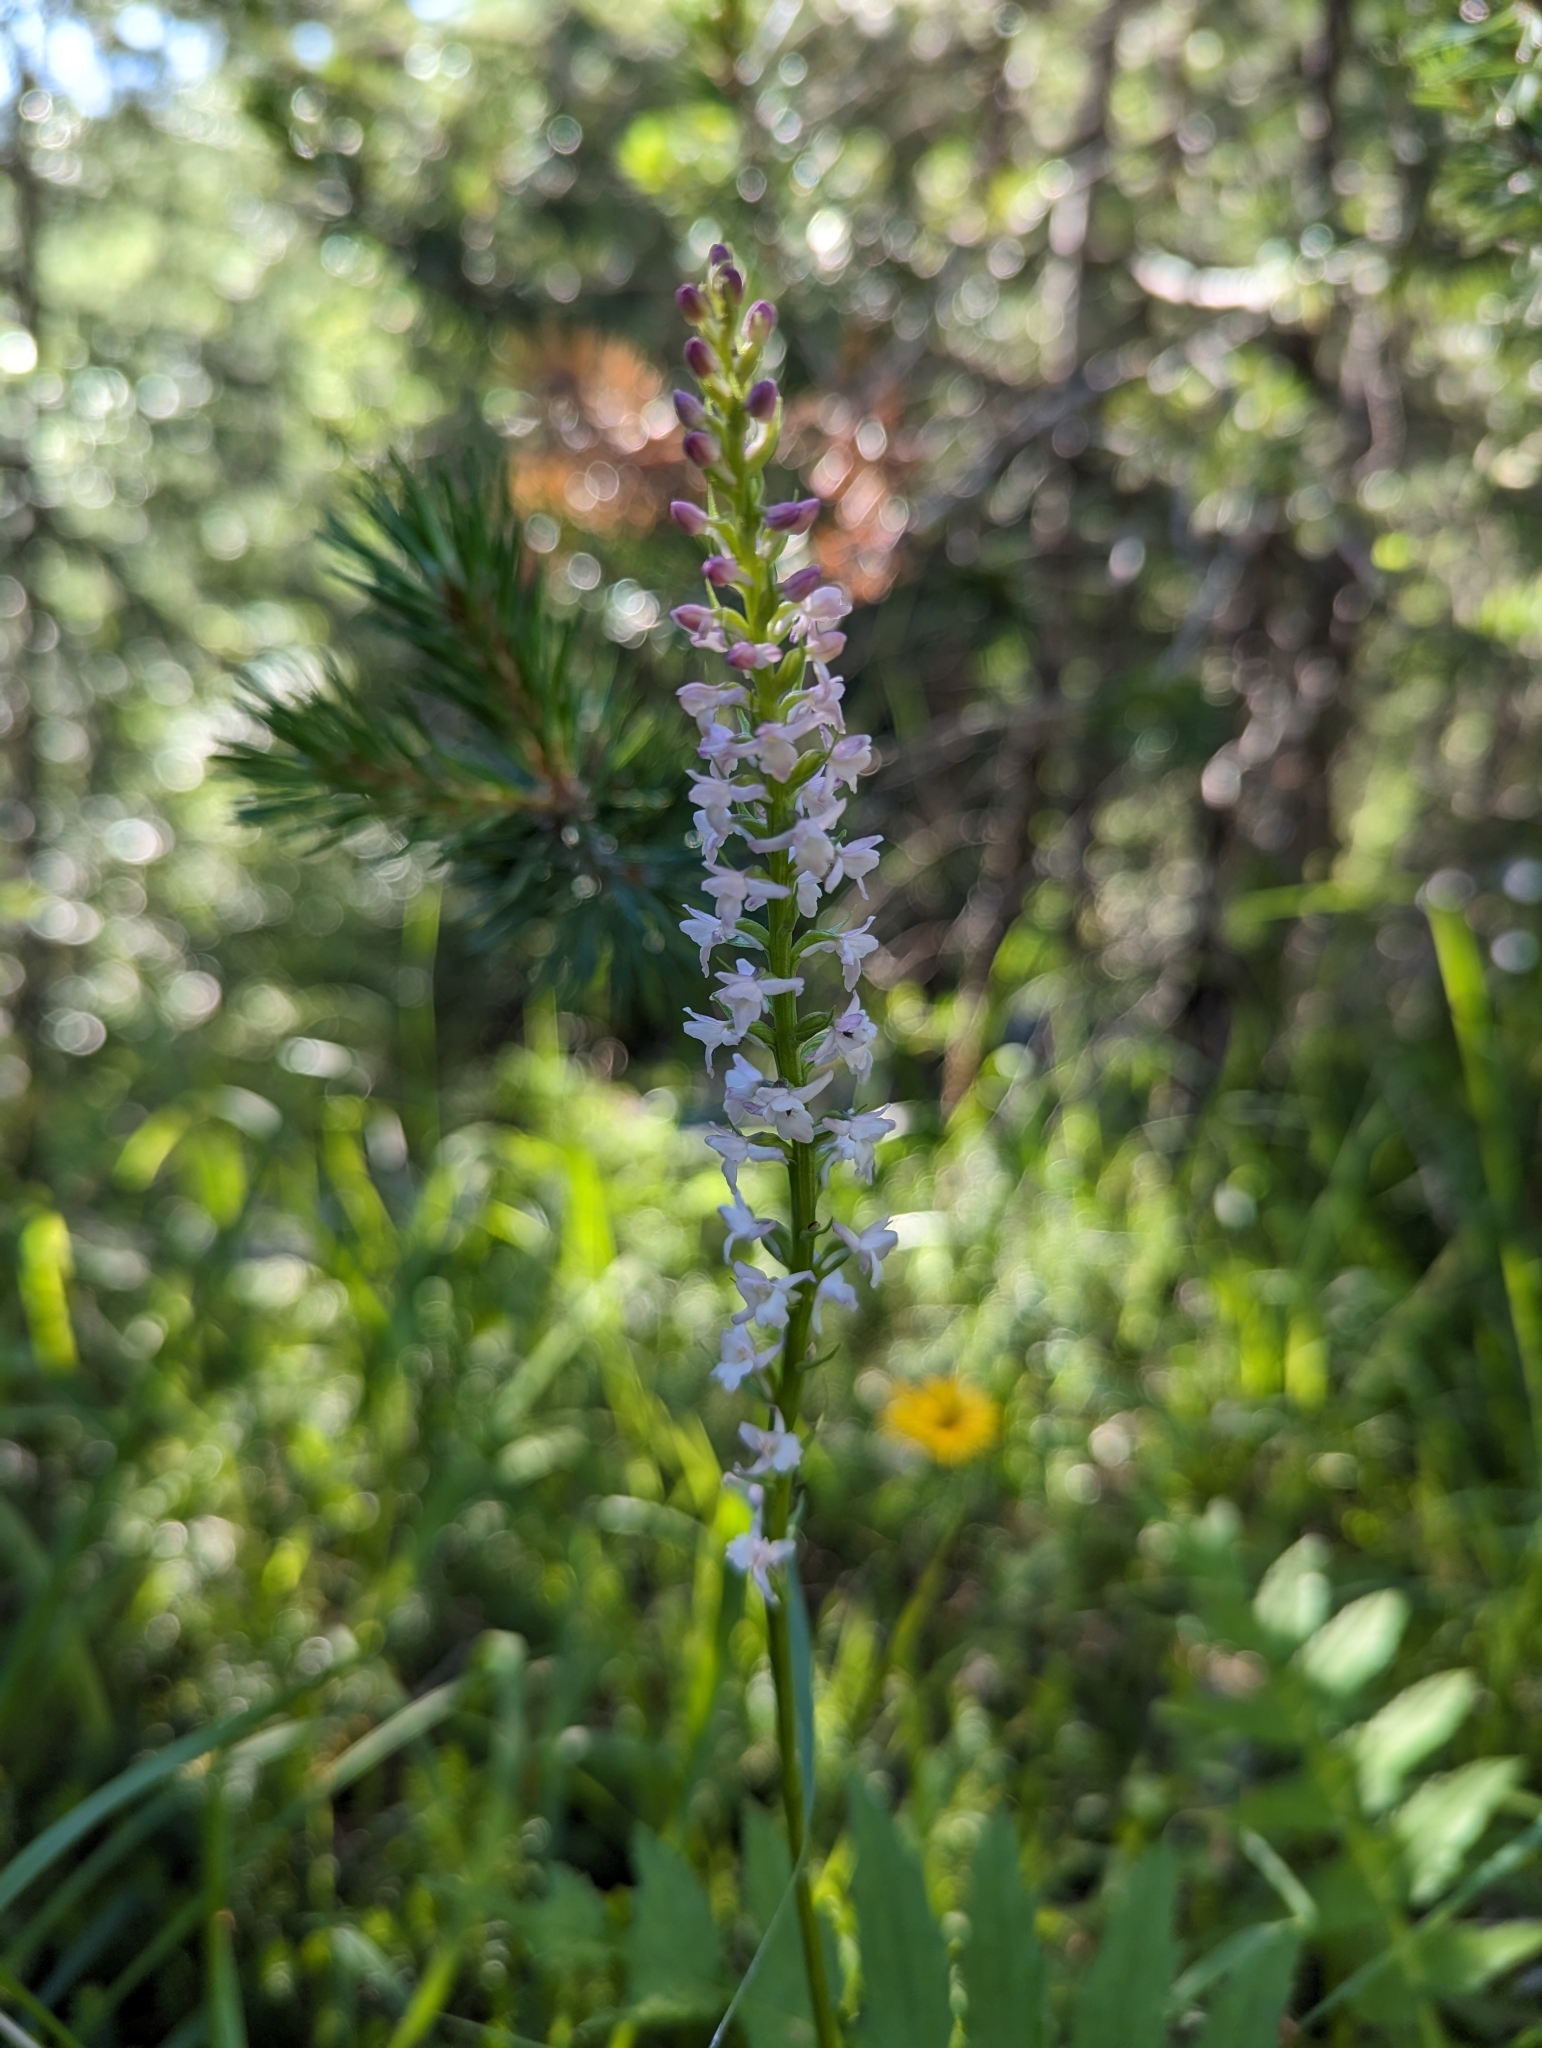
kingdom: Plantae
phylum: Tracheophyta
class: Liliopsida
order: Asparagales
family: Orchidaceae
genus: Gymnadenia
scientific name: Gymnadenia odoratissima
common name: Scented gymnadenia
